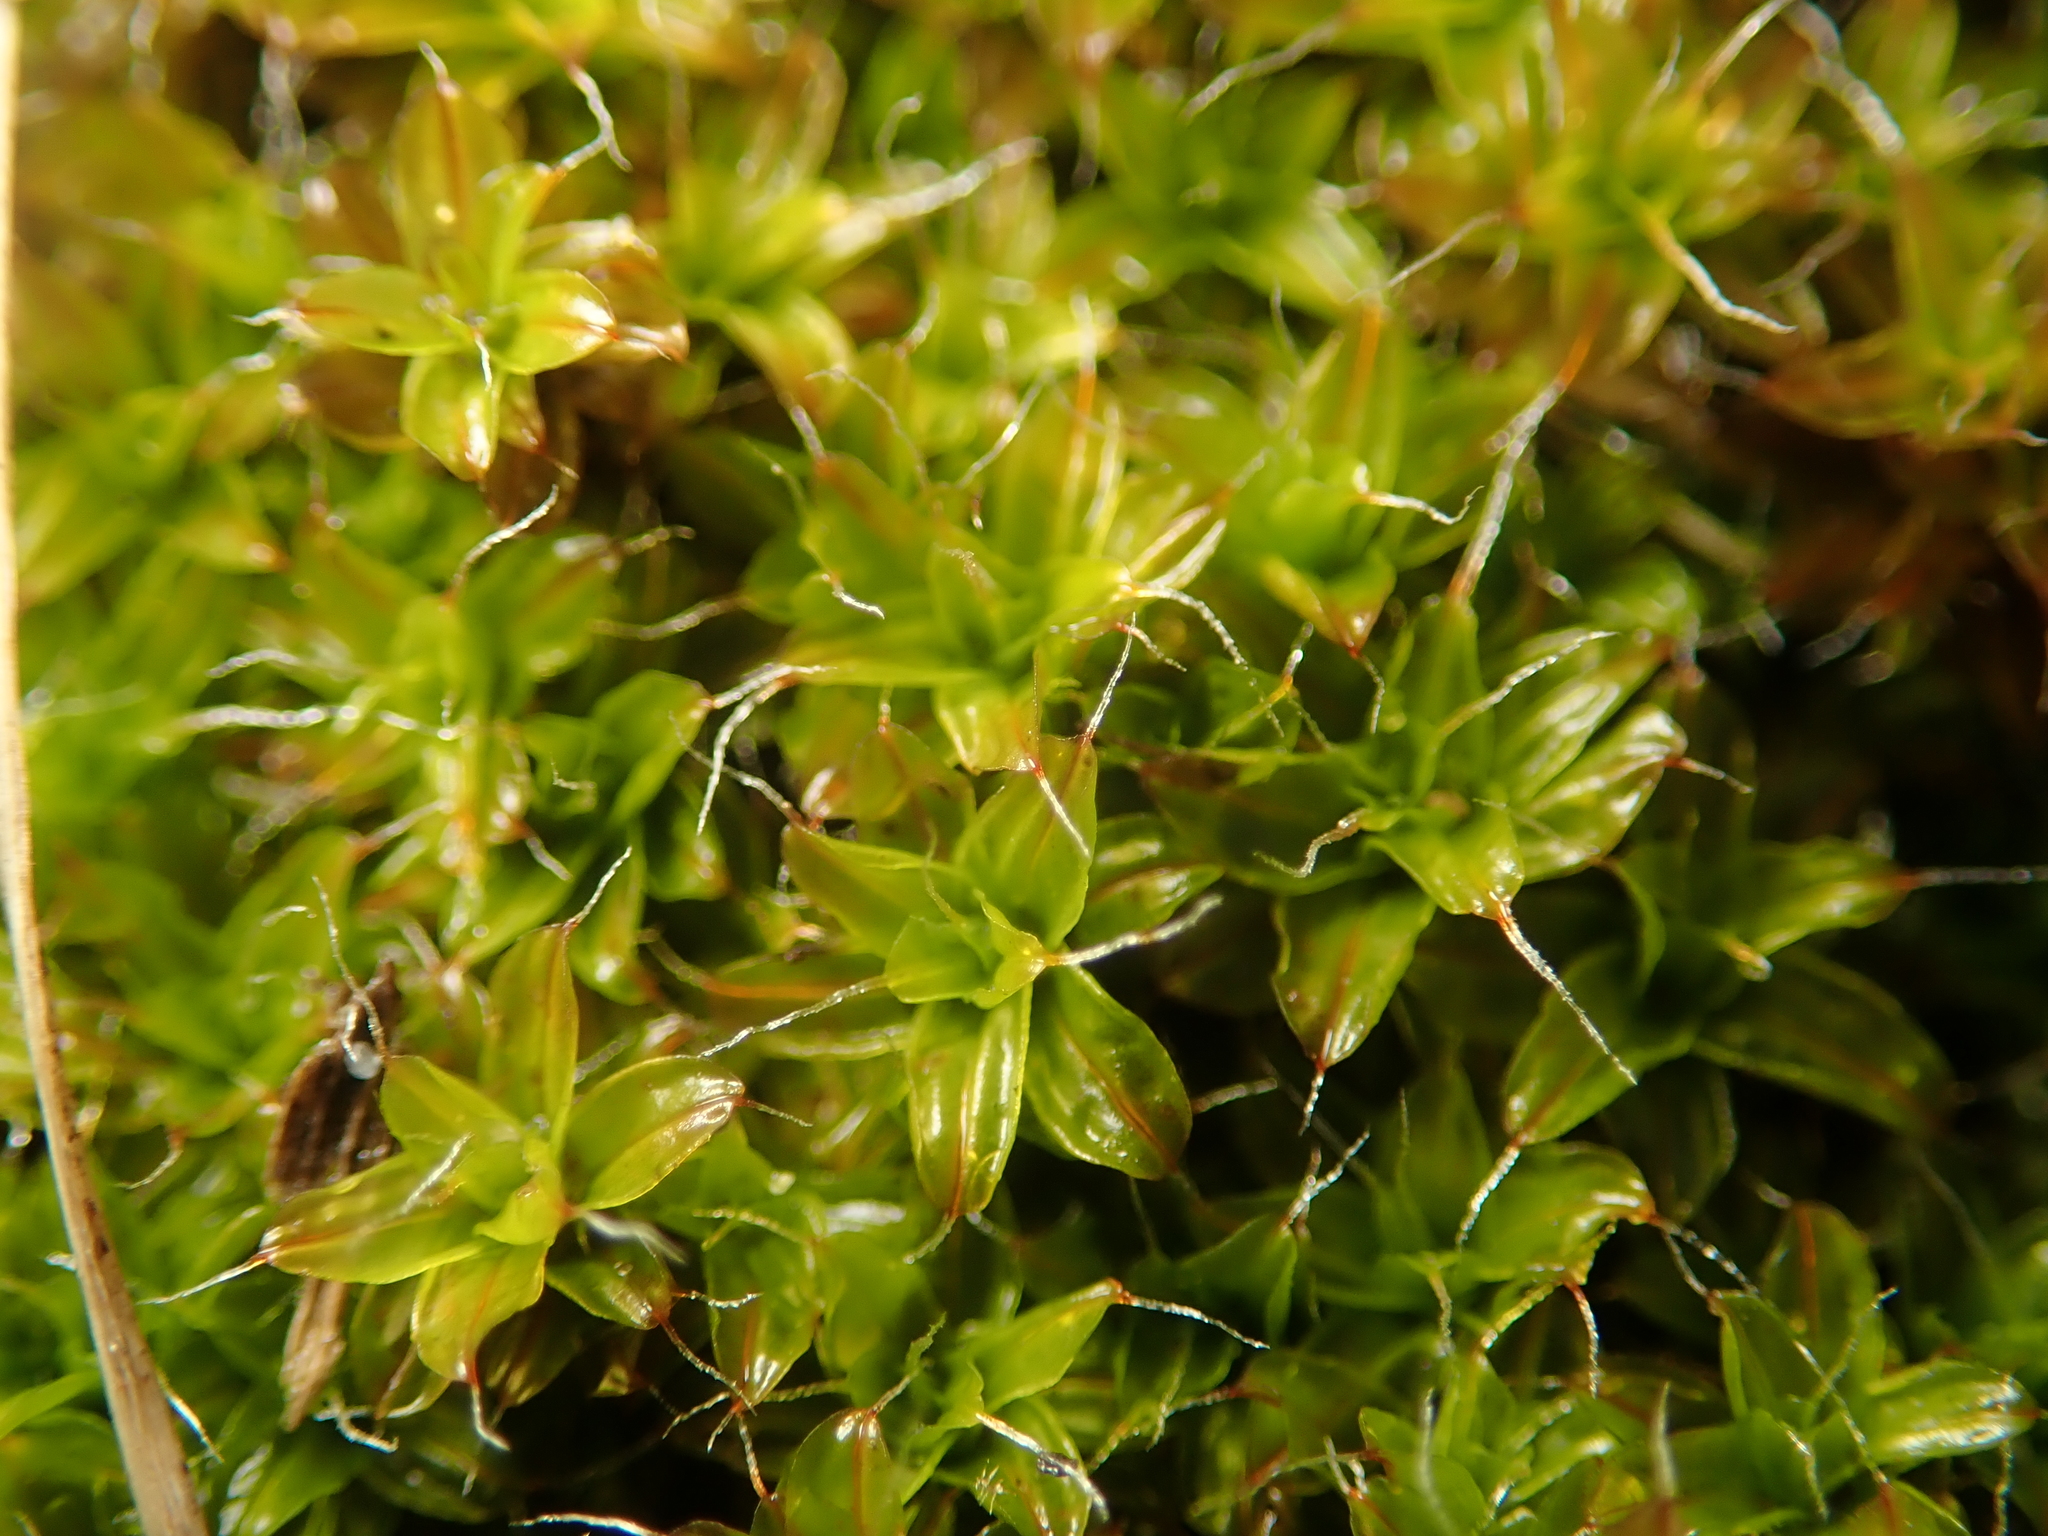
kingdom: Plantae
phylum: Bryophyta
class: Bryopsida
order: Pottiales
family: Pottiaceae
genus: Syntrichia
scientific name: Syntrichia ruralis
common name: Sidewalk screw moss
